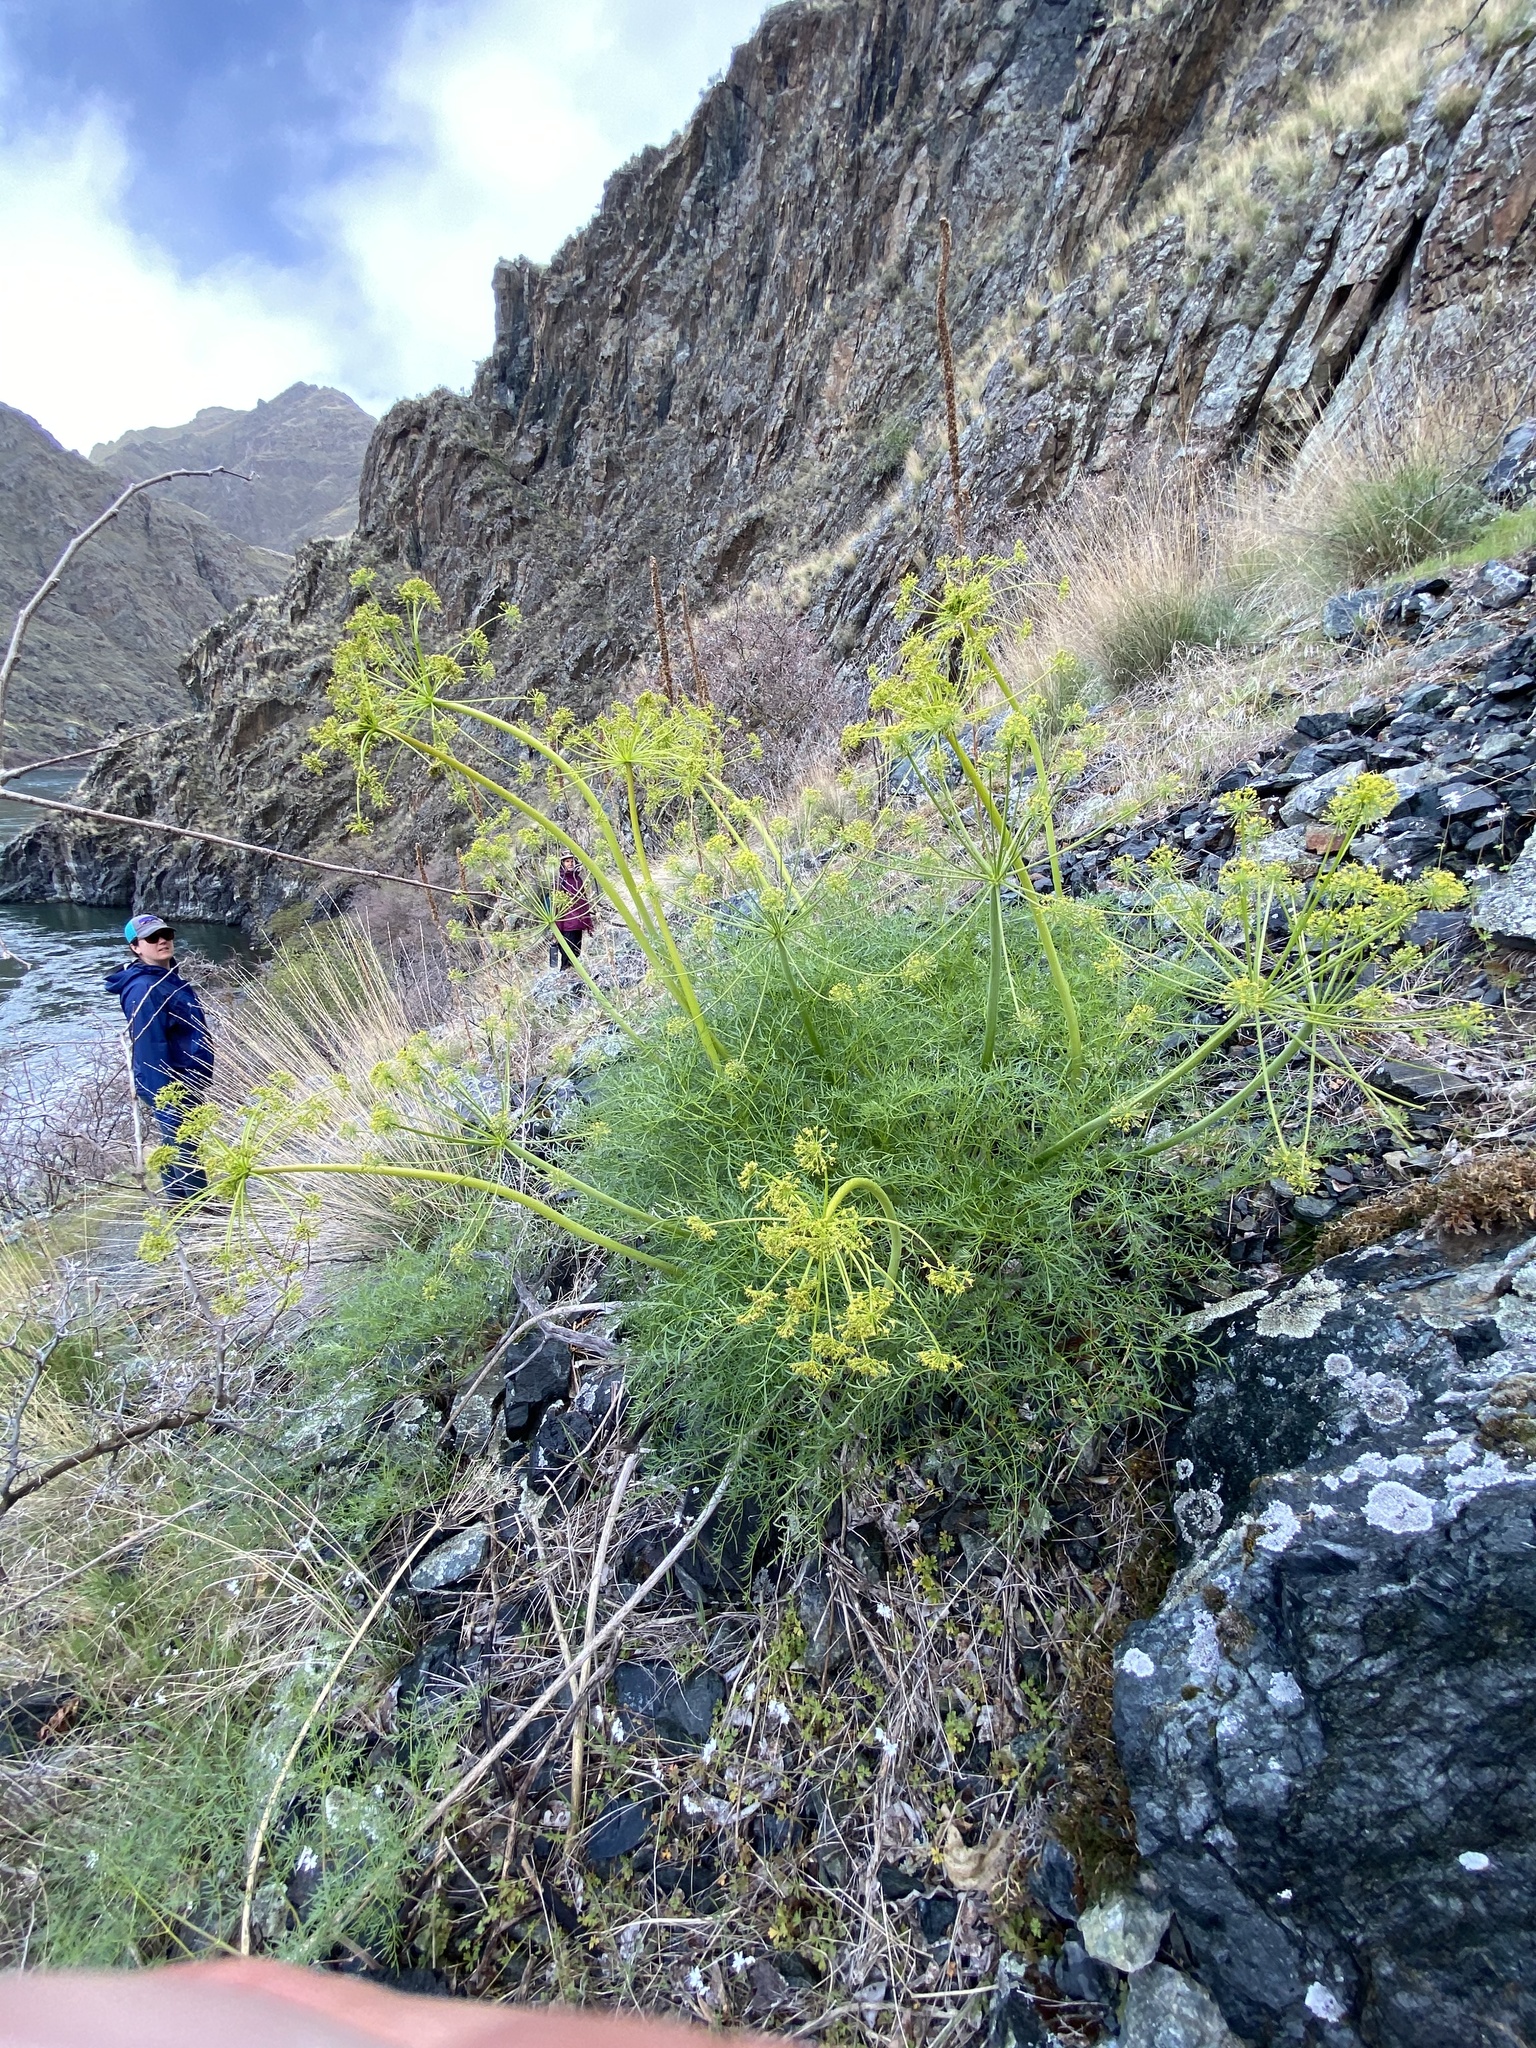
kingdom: Plantae
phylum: Tracheophyta
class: Magnoliopsida
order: Apiales
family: Apiaceae
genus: Lomatium
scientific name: Lomatium filicinum
